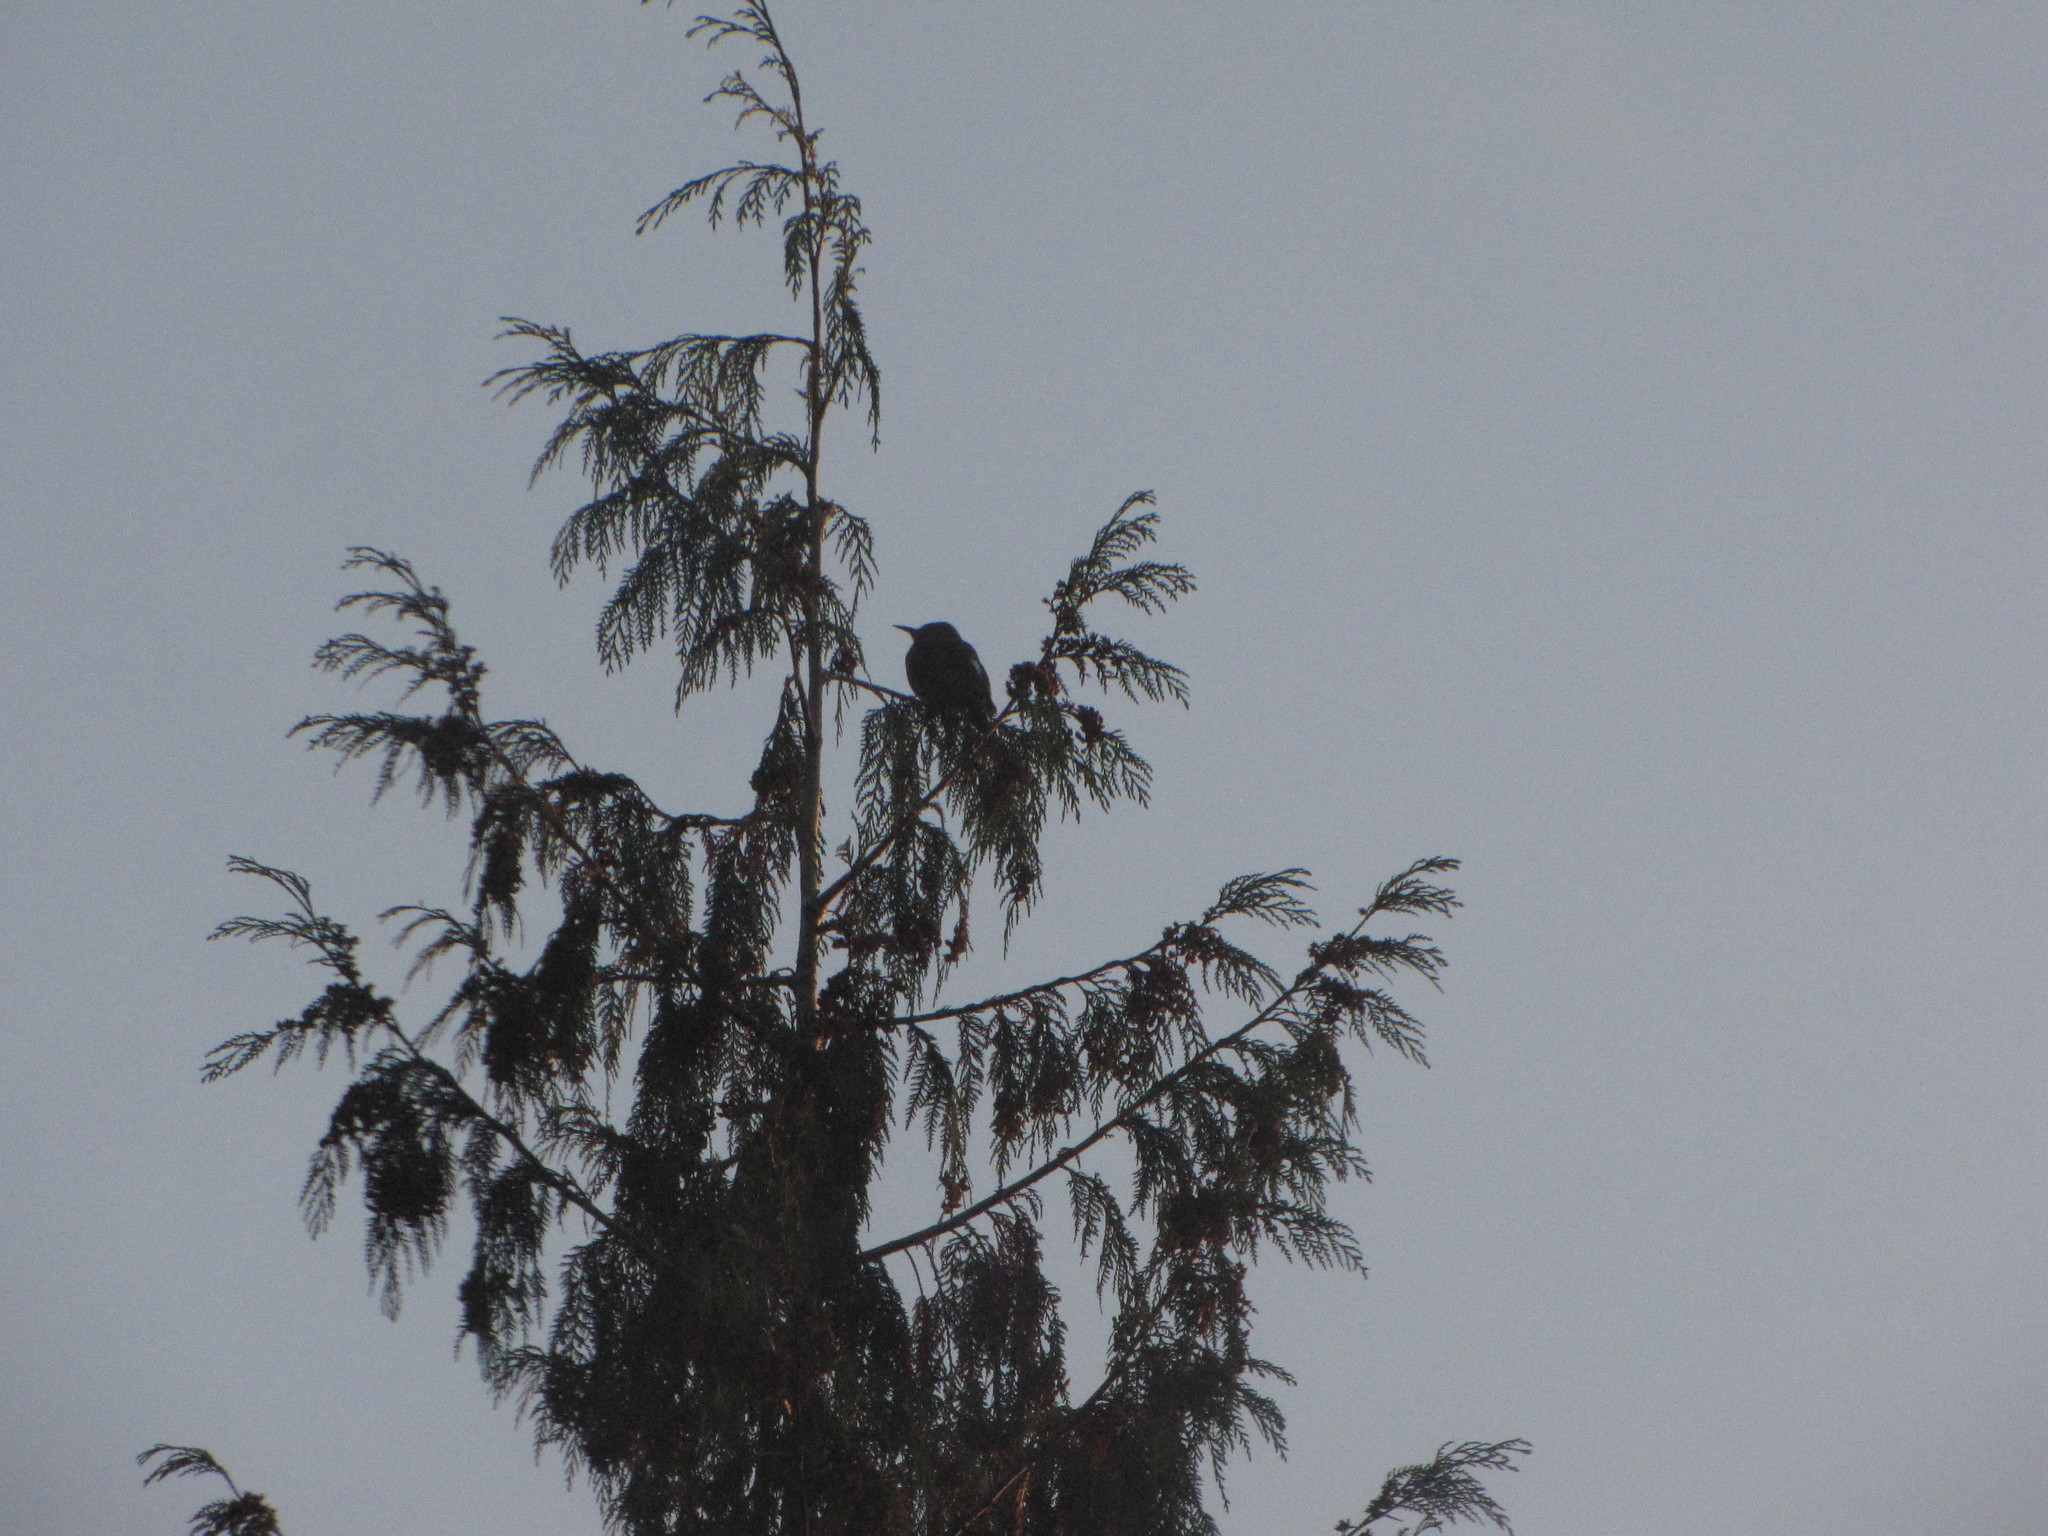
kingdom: Animalia
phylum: Chordata
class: Aves
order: Piciformes
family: Picidae
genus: Colaptes
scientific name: Colaptes auratus
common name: Northern flicker
